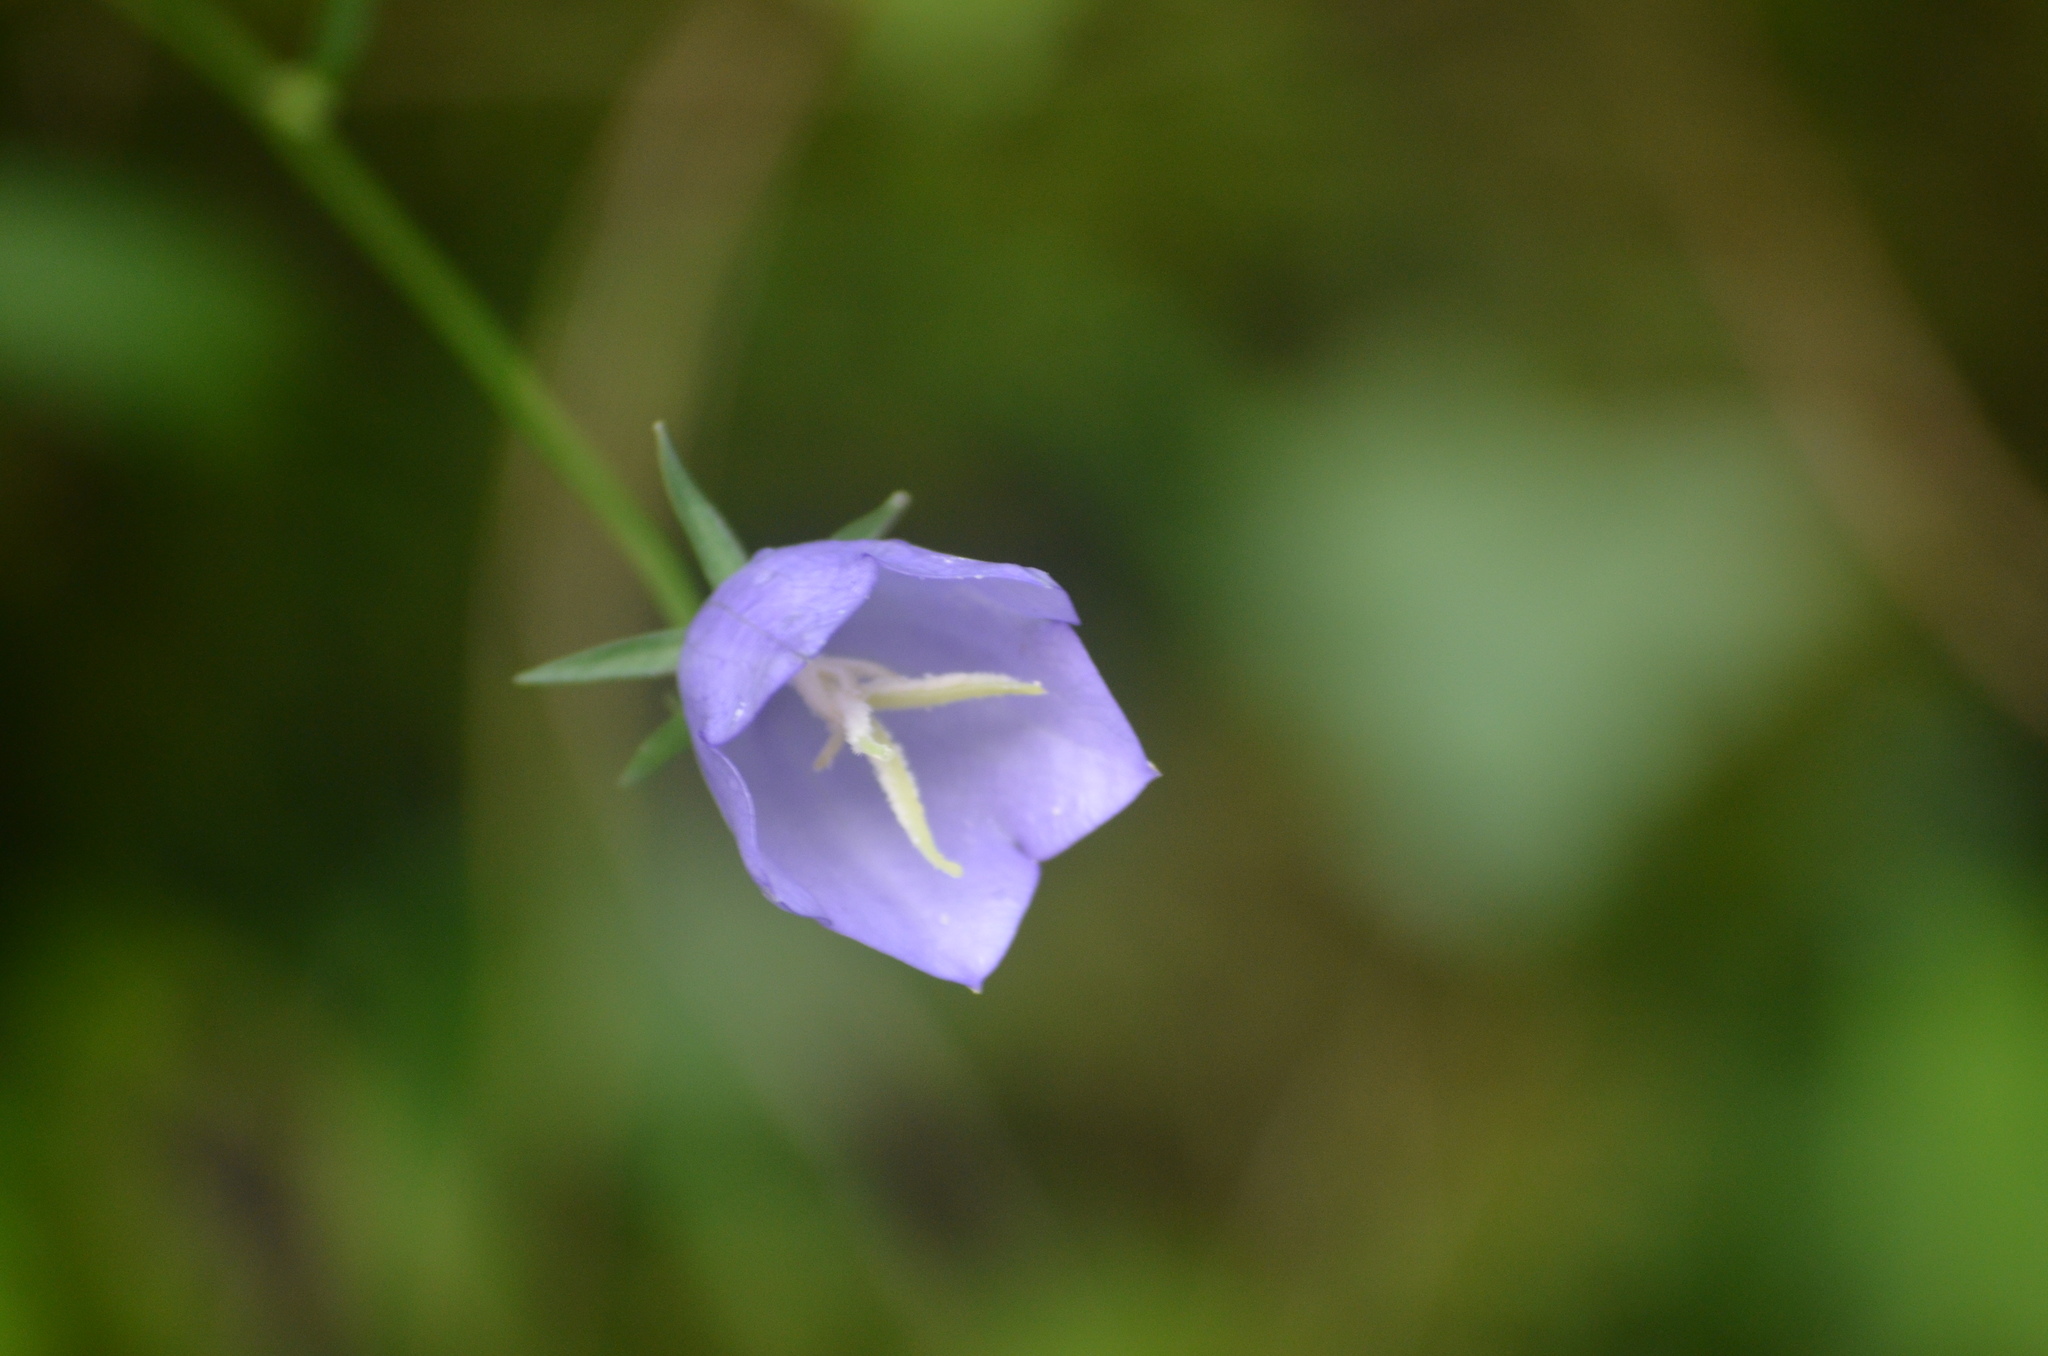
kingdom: Plantae
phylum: Tracheophyta
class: Magnoliopsida
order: Asterales
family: Campanulaceae
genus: Campanula
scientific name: Campanula persicifolia
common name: Peach-leaved bellflower
